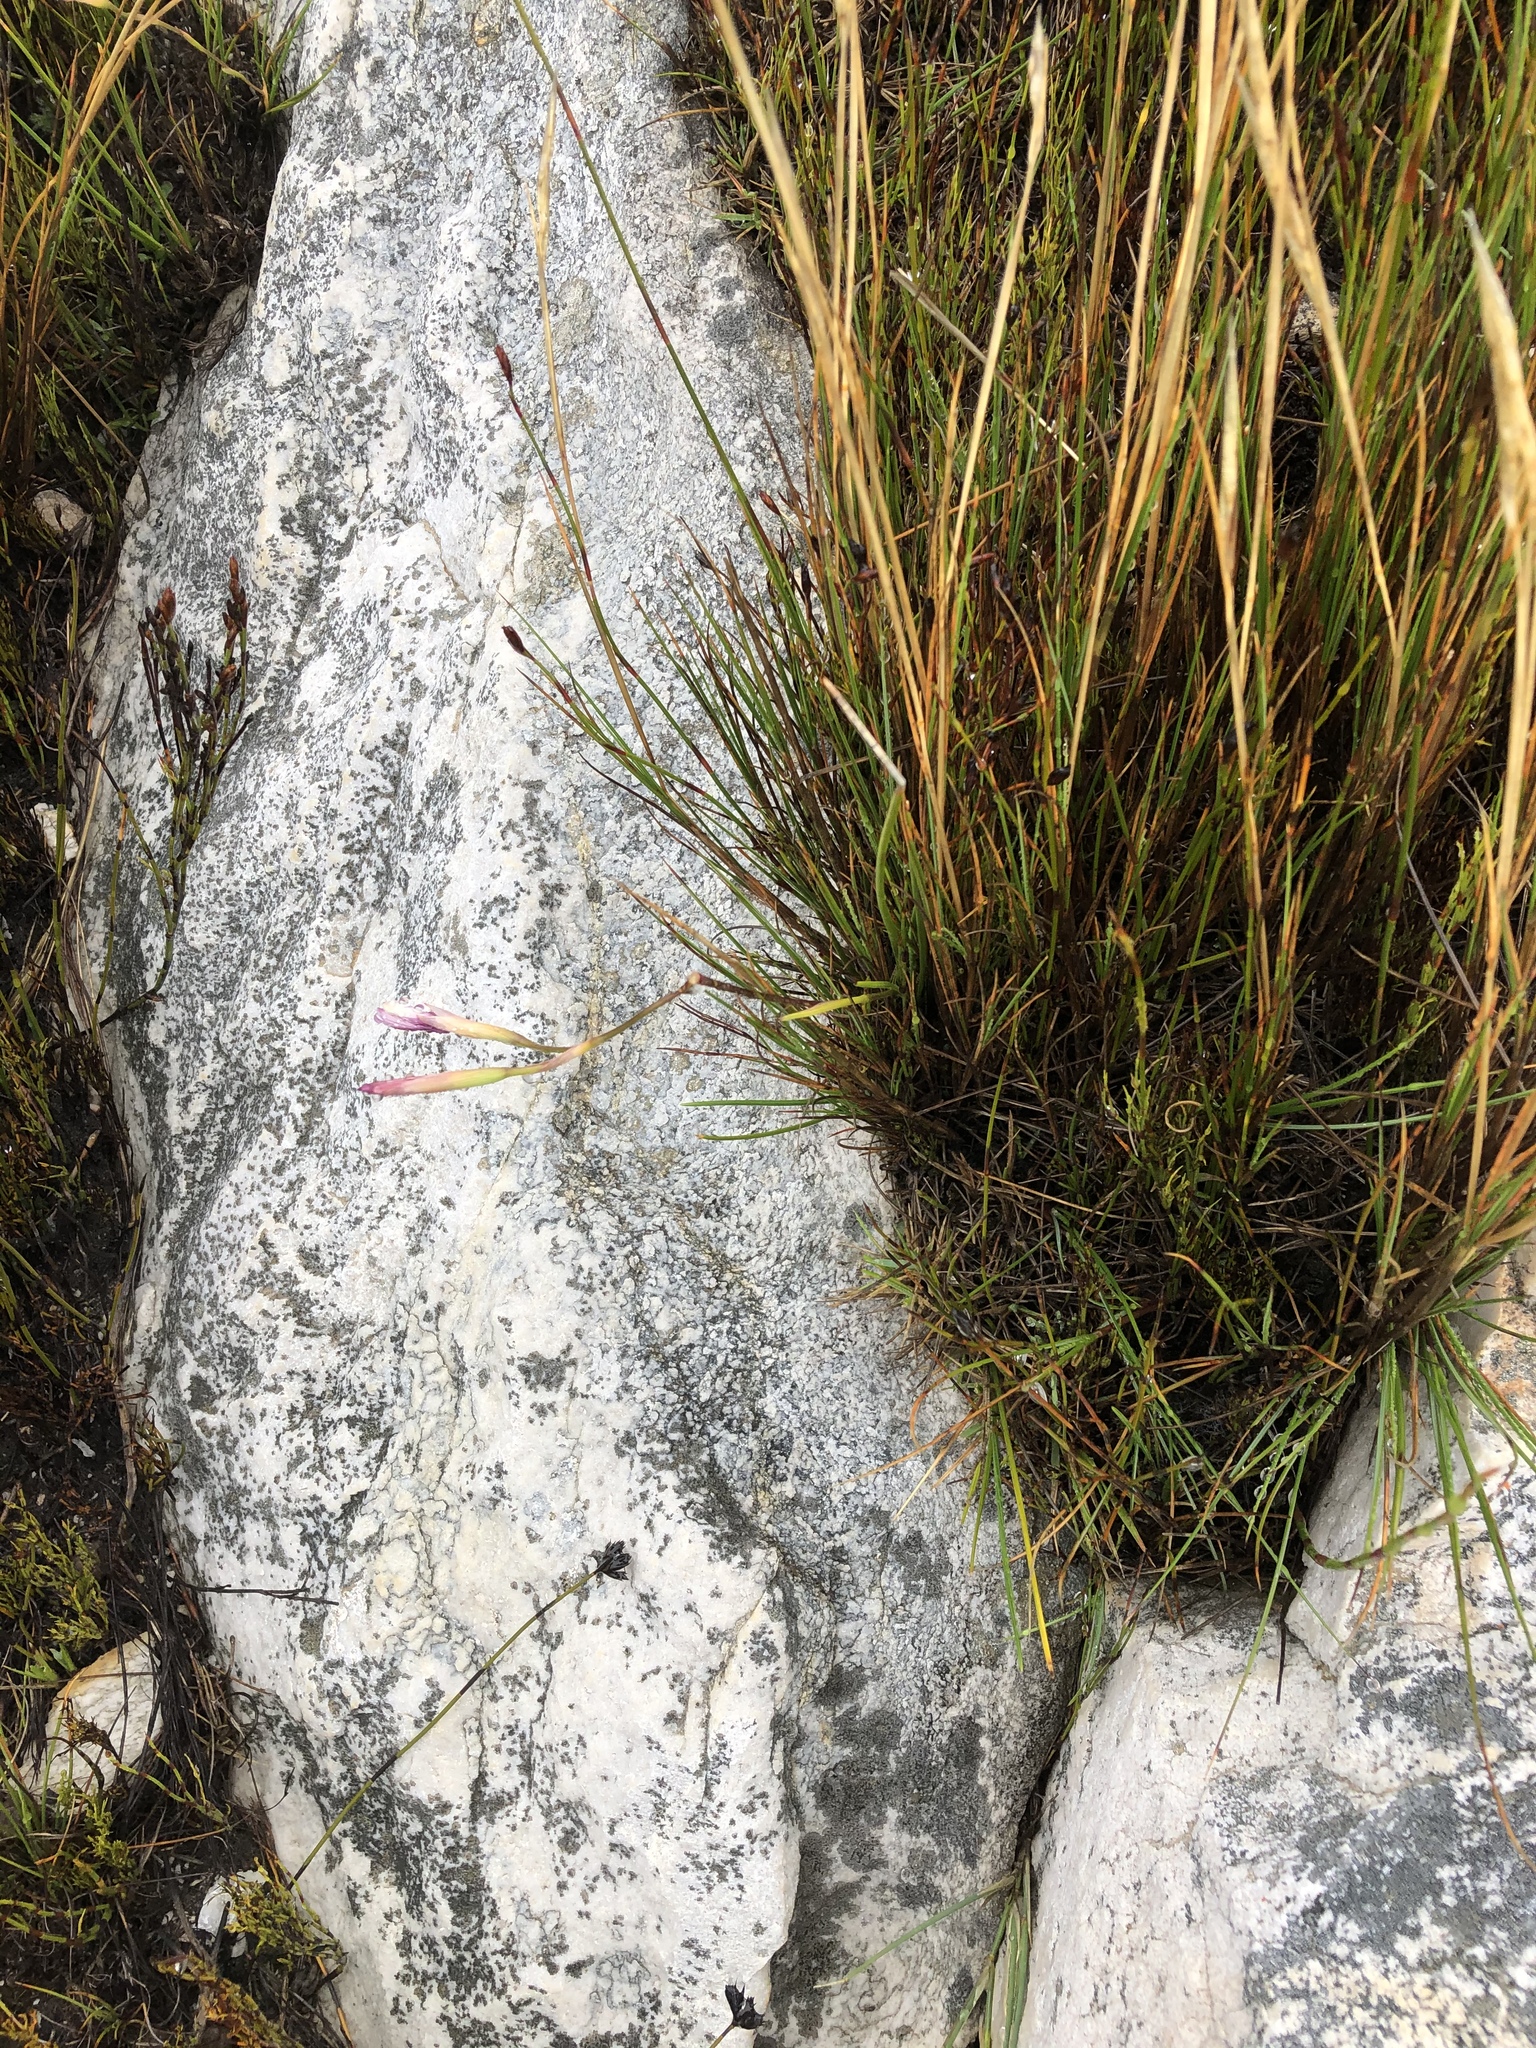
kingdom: Plantae
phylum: Tracheophyta
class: Liliopsida
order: Asparagales
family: Iridaceae
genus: Geissorhiza
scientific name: Geissorhiza fourcadei
